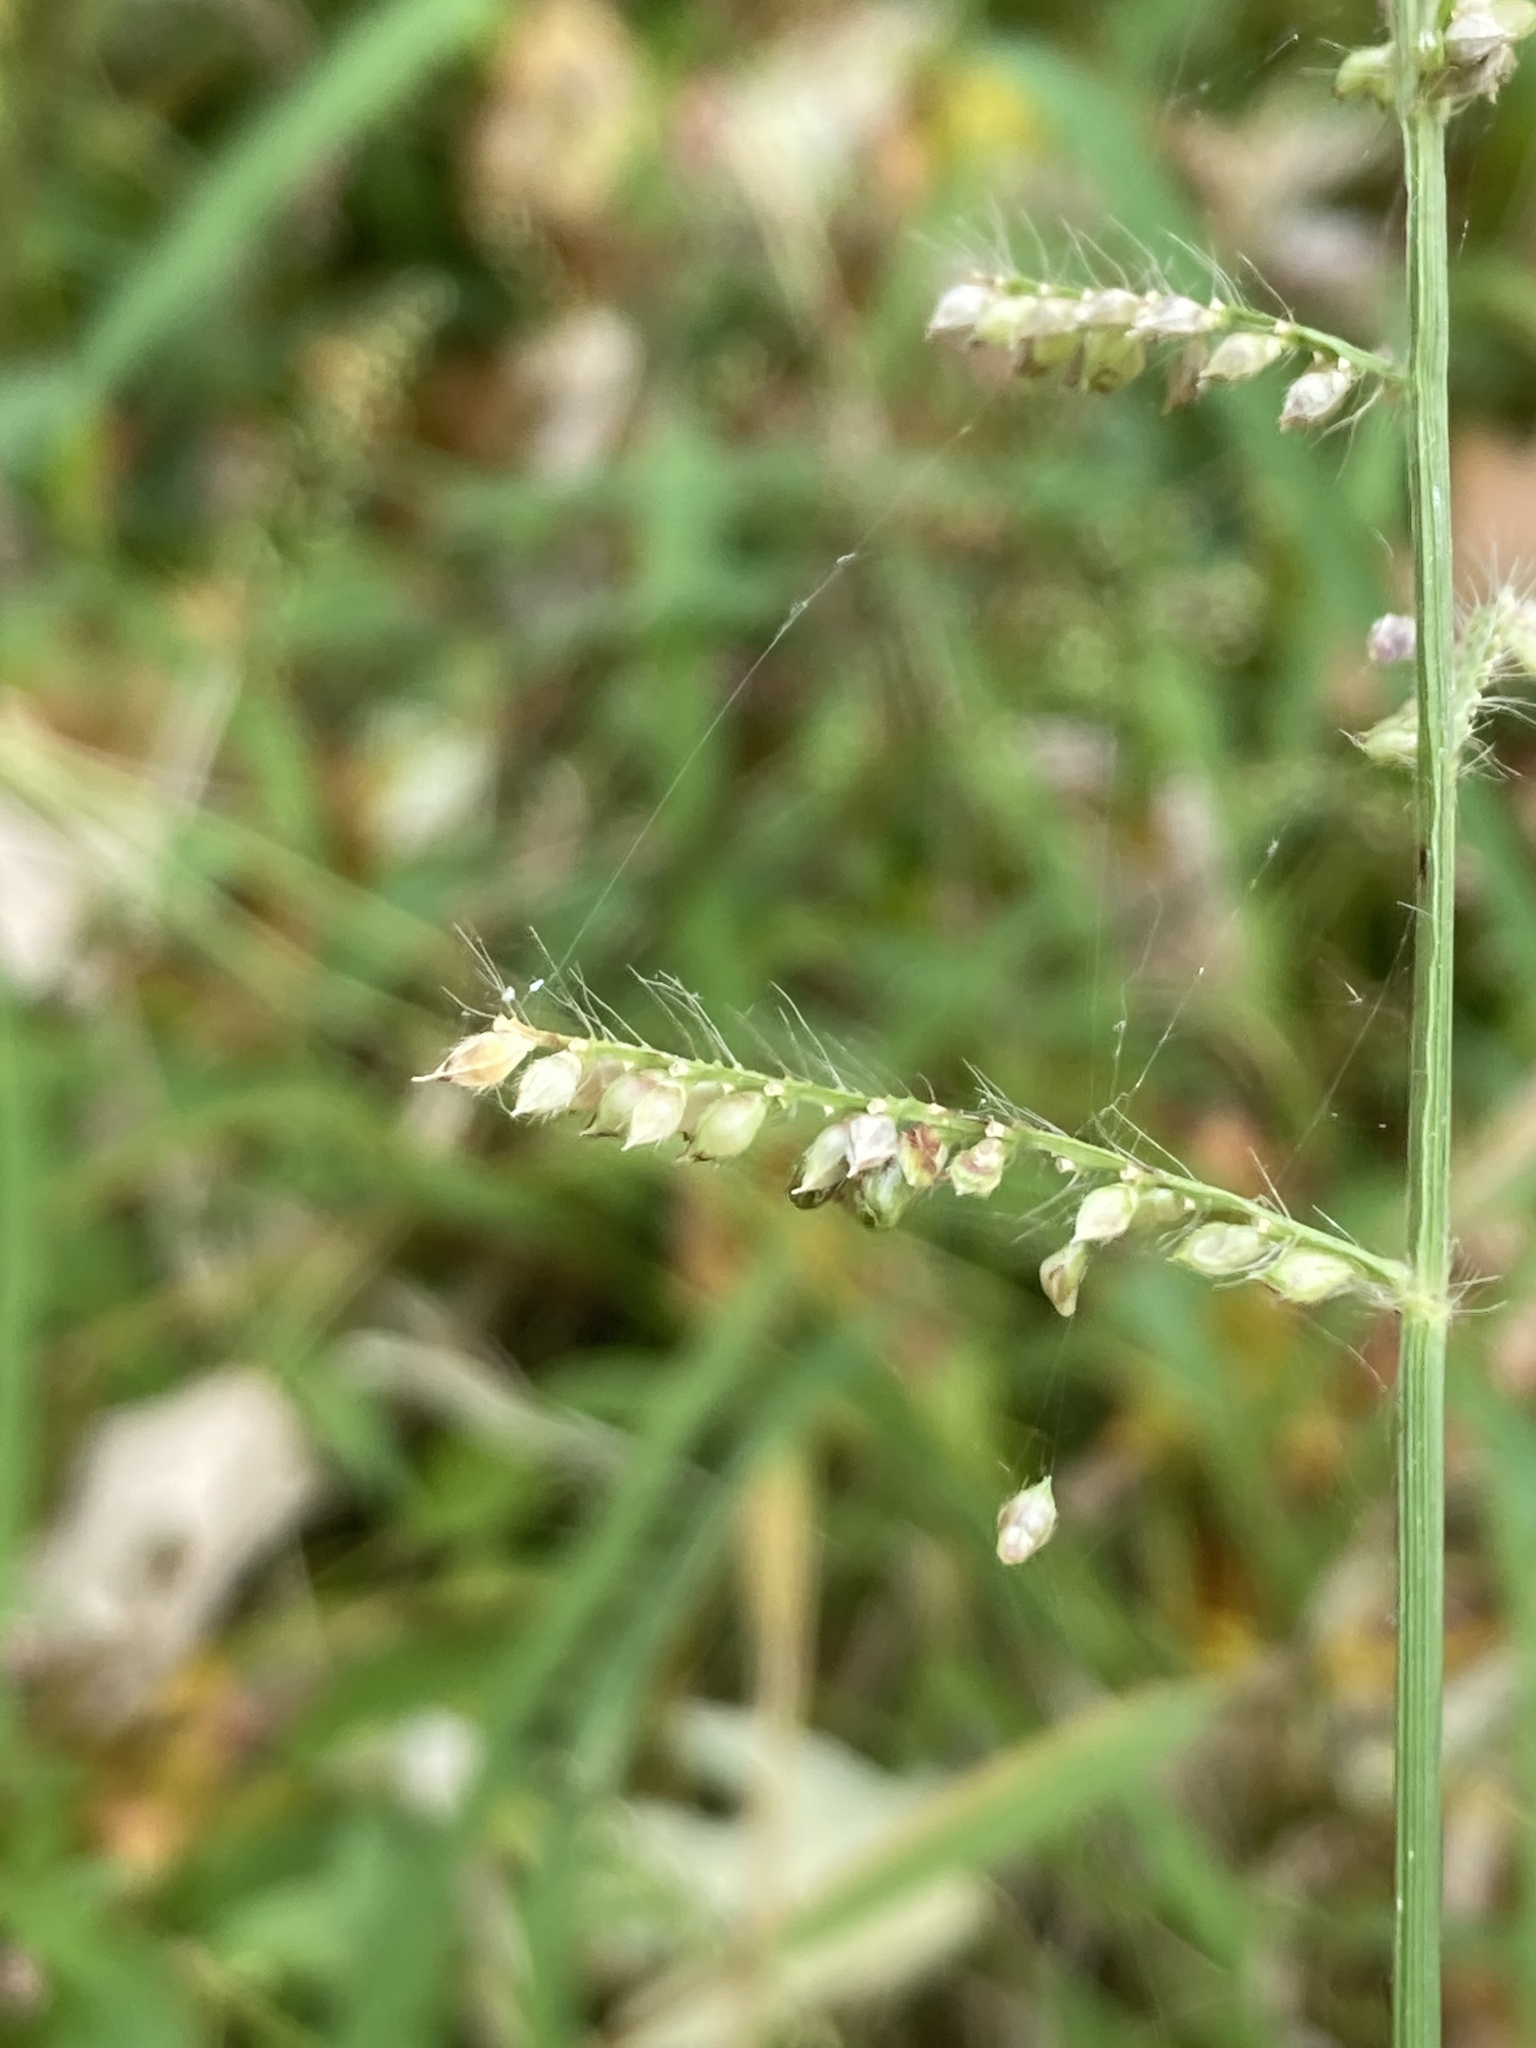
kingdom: Plantae
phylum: Tracheophyta
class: Liliopsida
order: Poales
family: Poaceae
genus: Echinochloa
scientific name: Echinochloa crus-galli
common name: Cockspur
